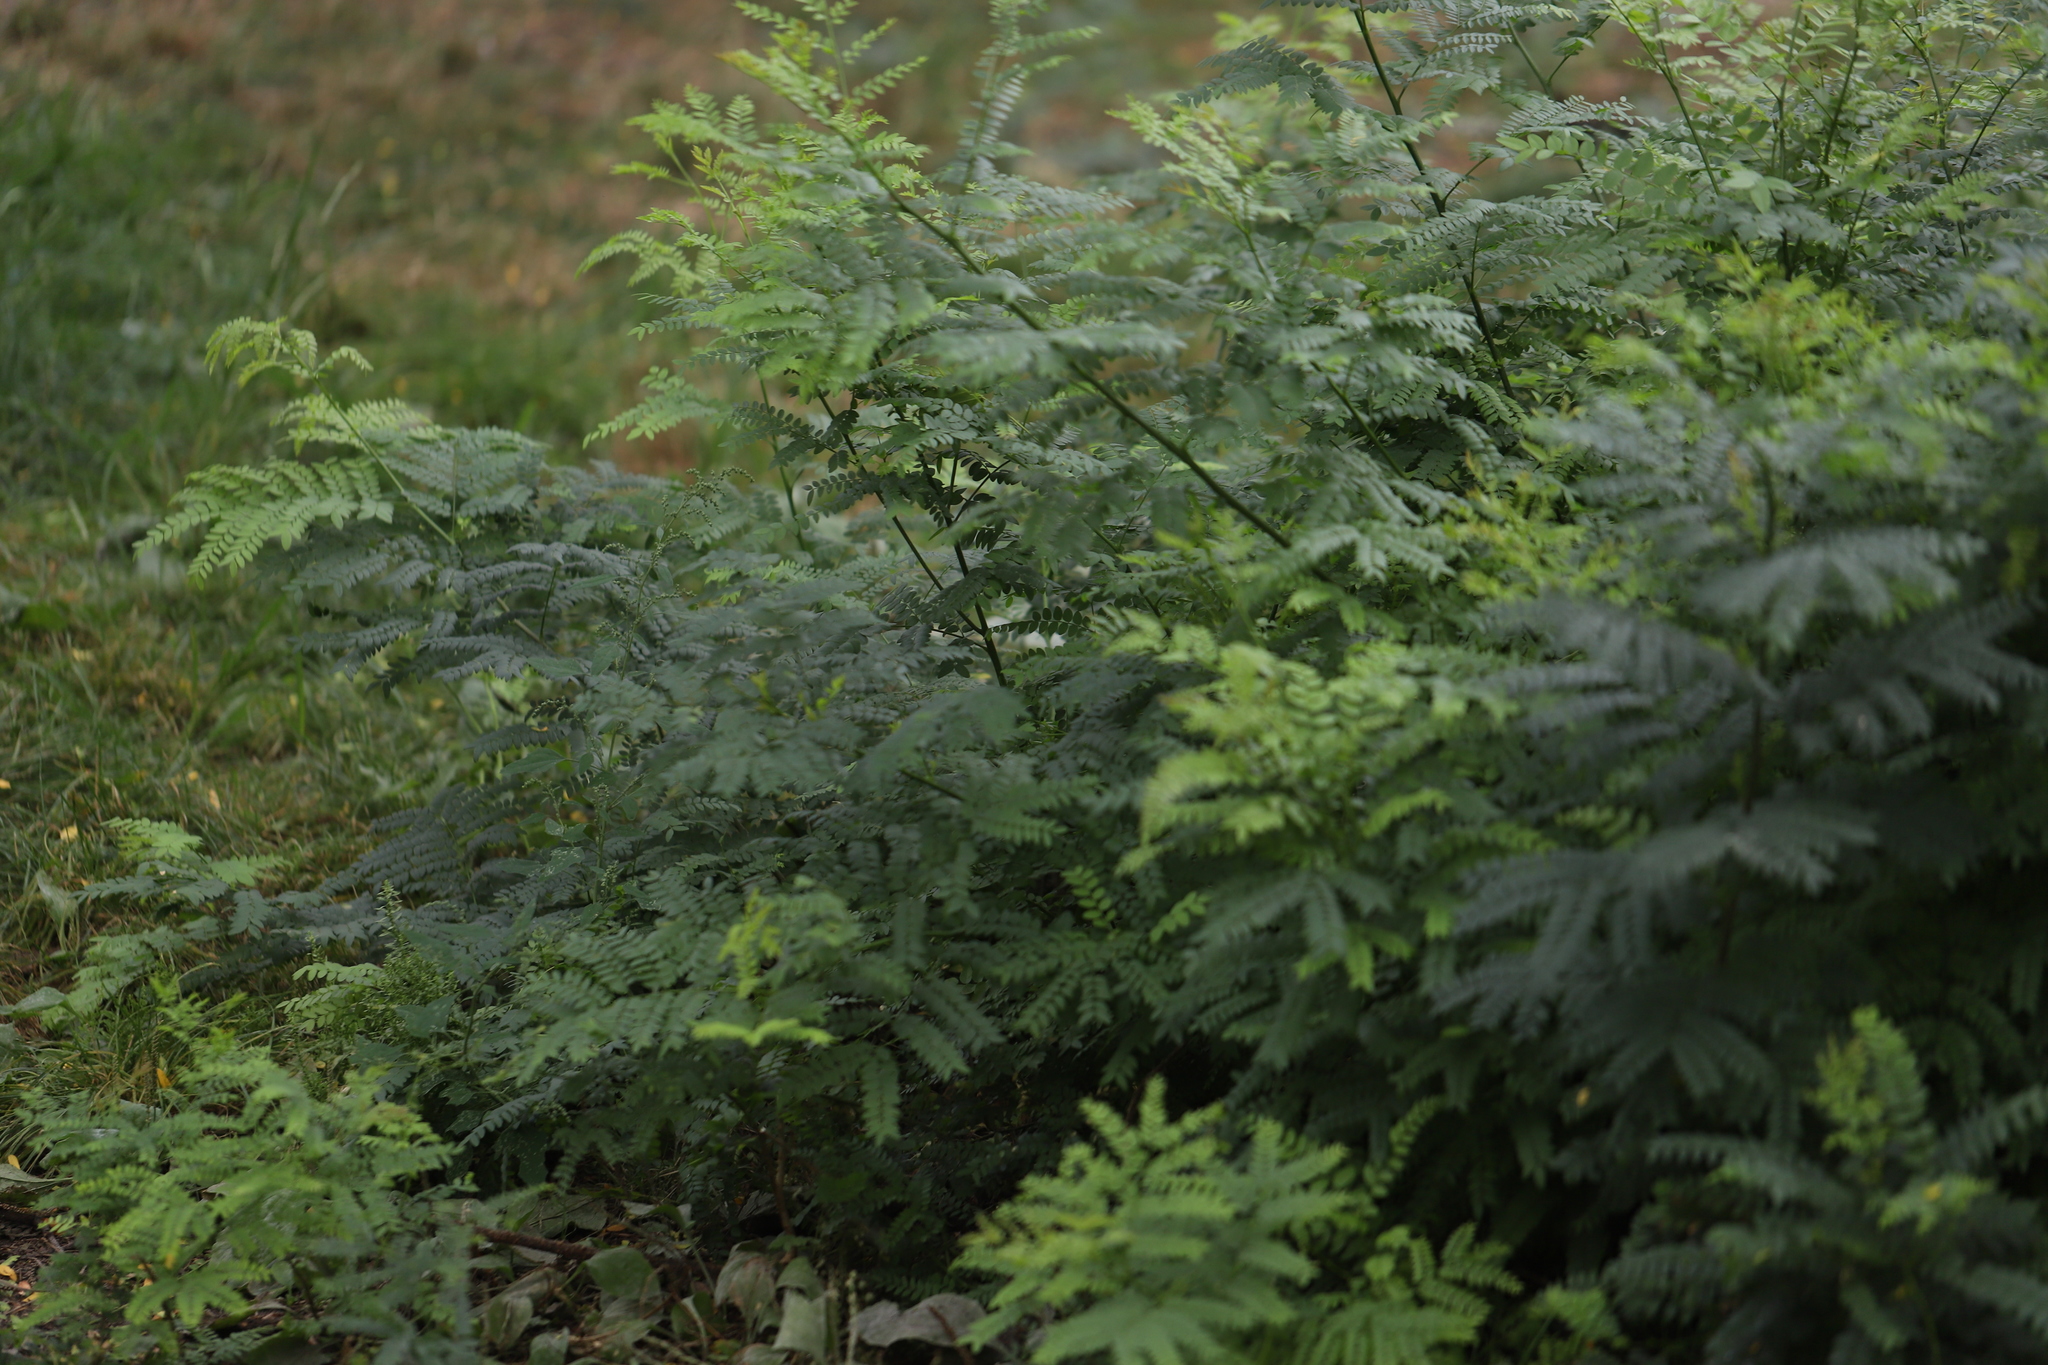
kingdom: Plantae
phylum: Tracheophyta
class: Magnoliopsida
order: Fabales
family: Fabaceae
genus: Gleditsia
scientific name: Gleditsia triacanthos
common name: Common honeylocust
